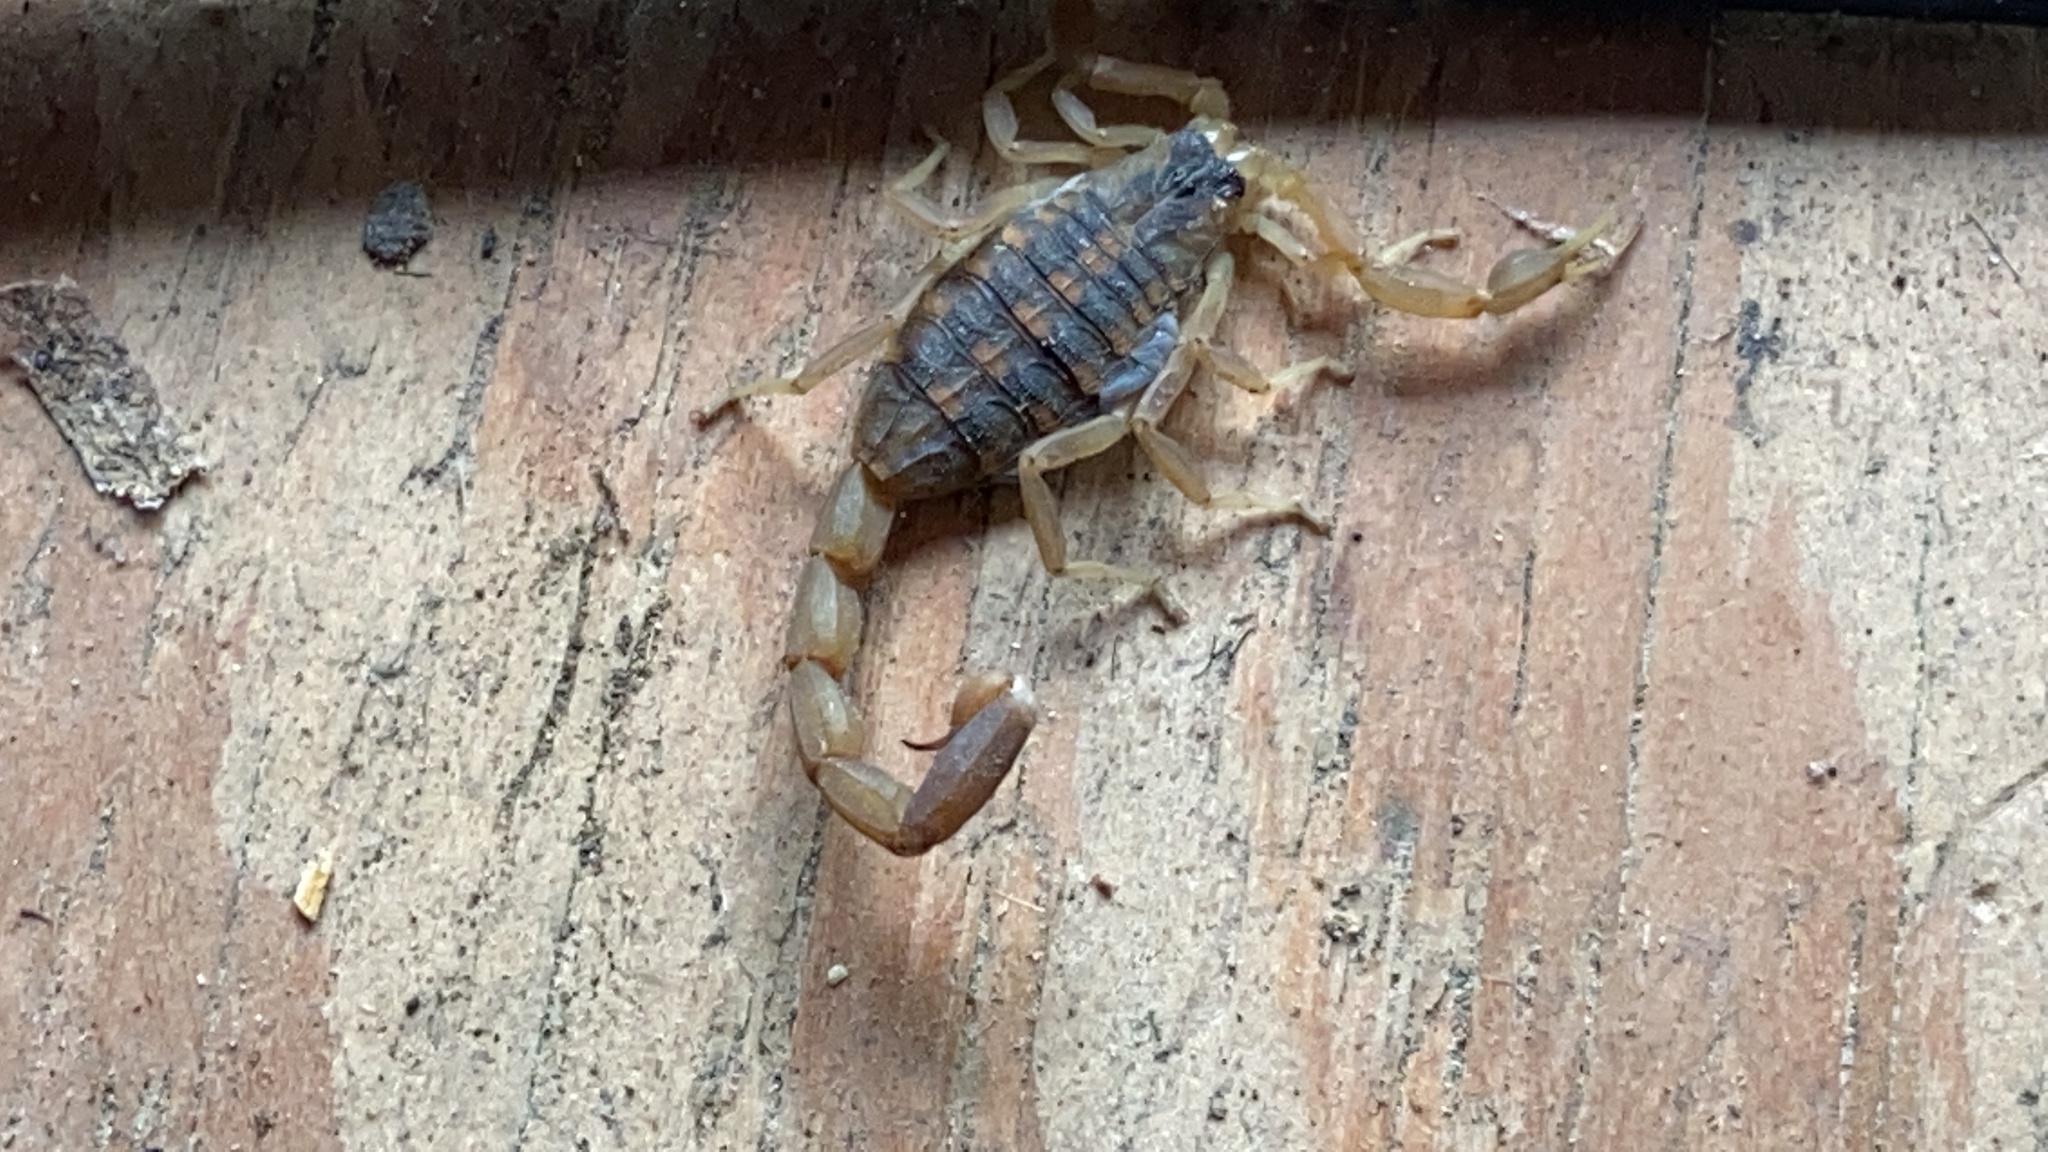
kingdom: Animalia
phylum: Arthropoda
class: Arachnida
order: Scorpiones
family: Buthidae
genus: Centruroides
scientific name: Centruroides vittatus
